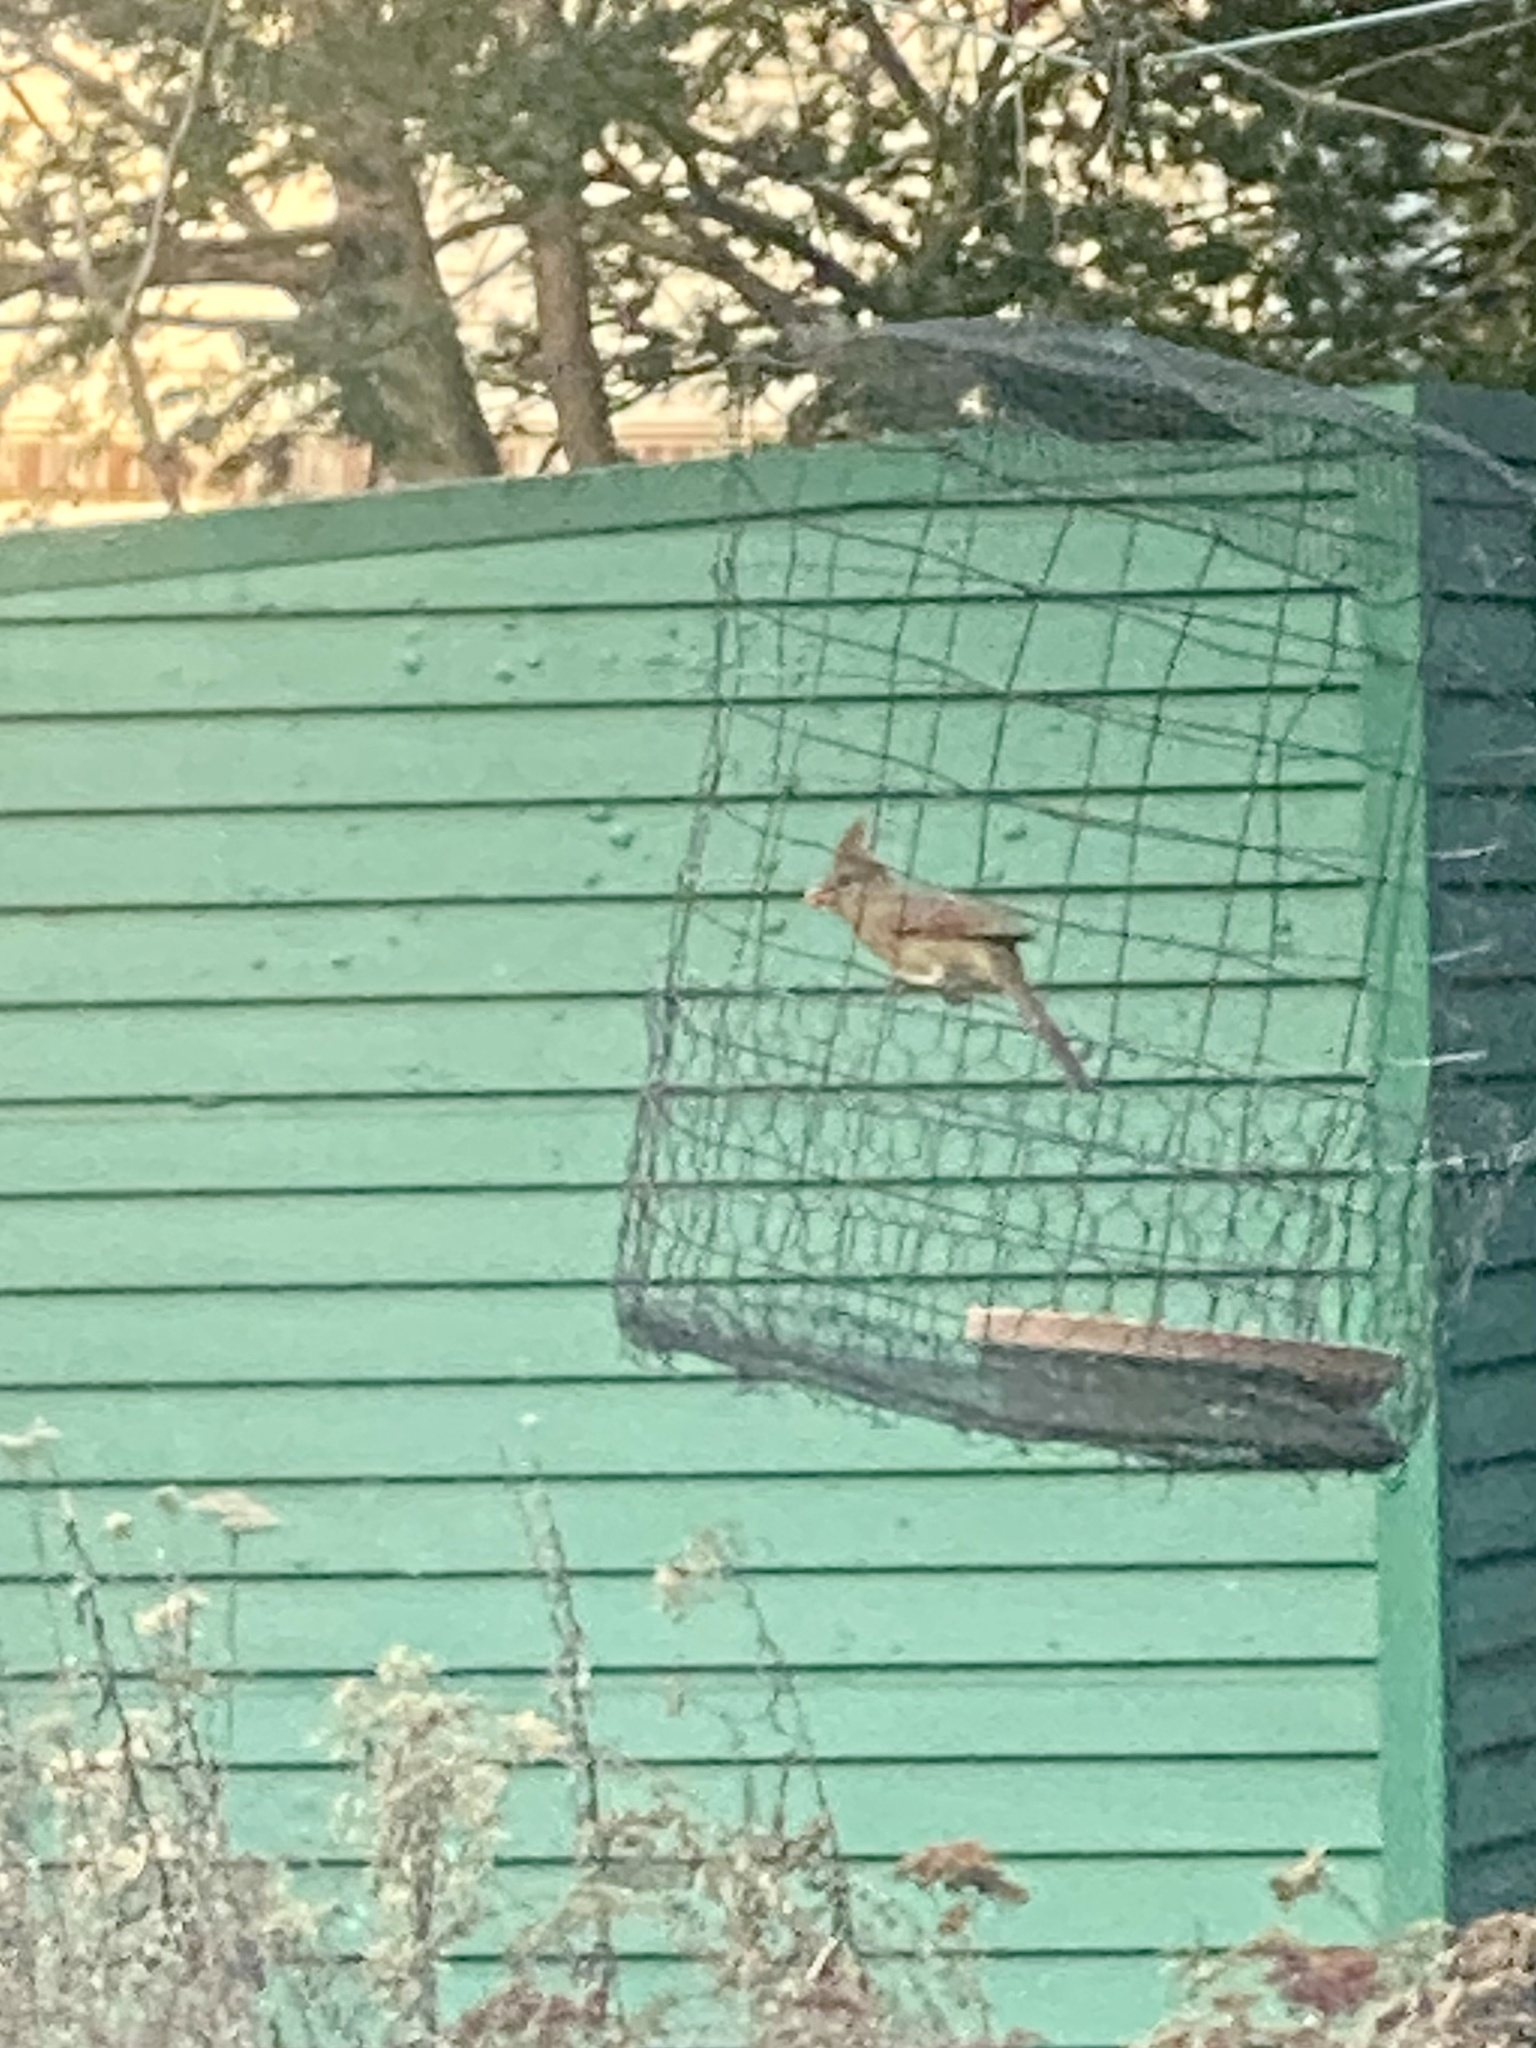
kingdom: Animalia
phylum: Chordata
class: Aves
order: Passeriformes
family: Cardinalidae
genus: Cardinalis
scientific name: Cardinalis cardinalis
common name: Northern cardinal
